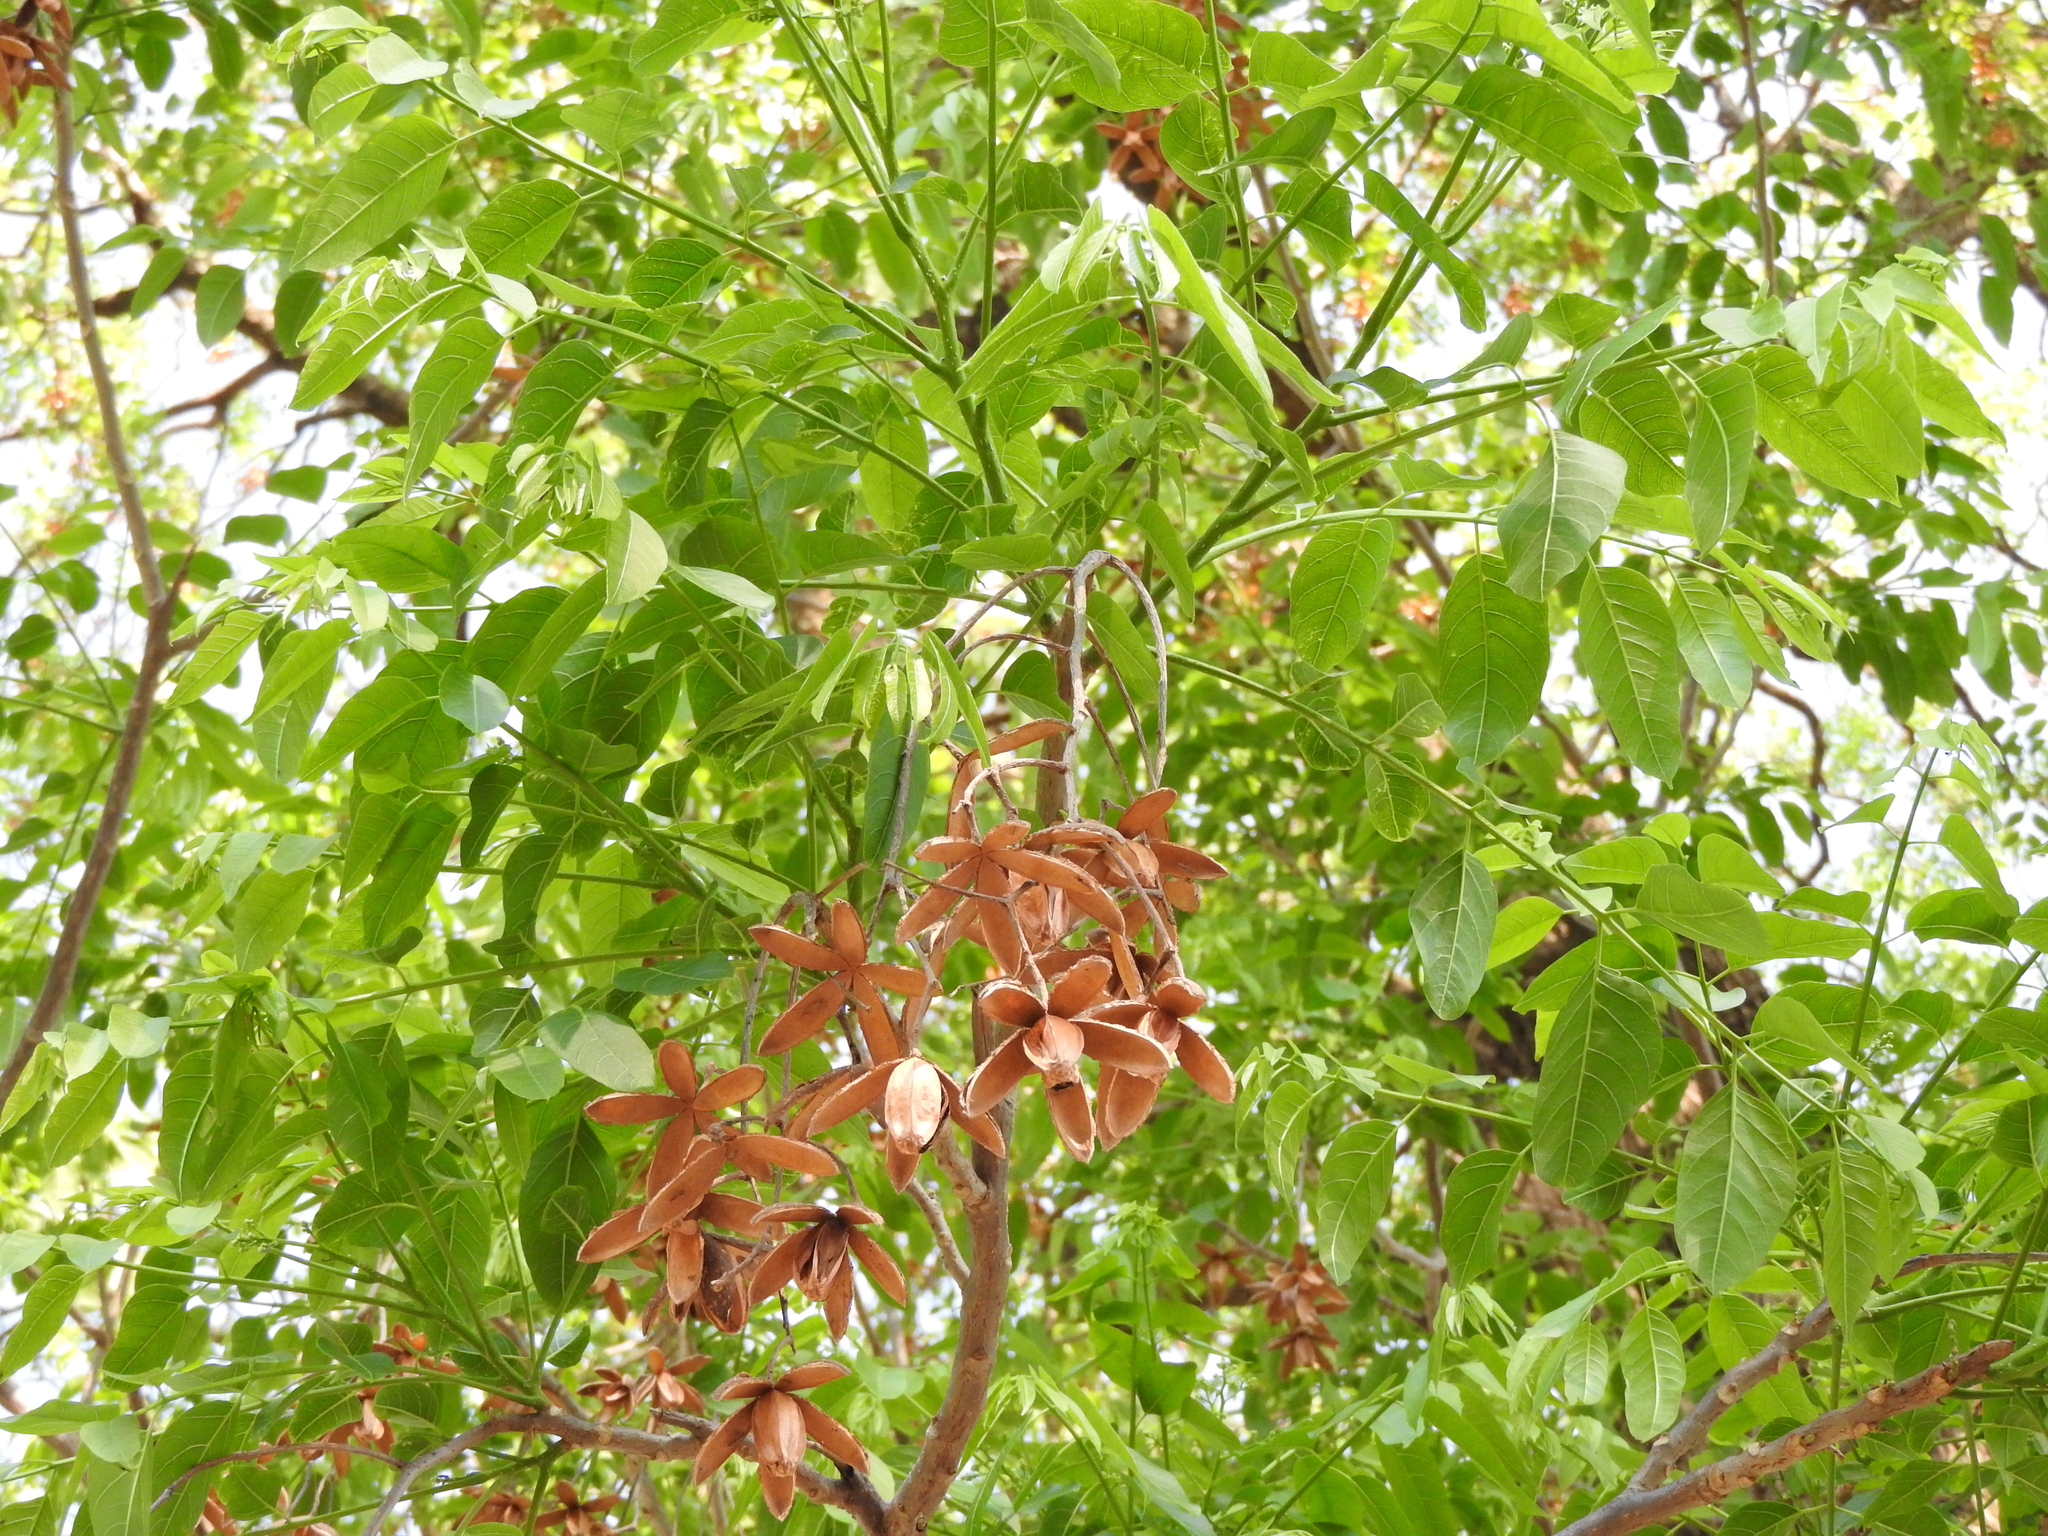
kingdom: Plantae
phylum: Tracheophyta
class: Magnoliopsida
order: Sapindales
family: Meliaceae
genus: Cedrela
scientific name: Cedrela odorata
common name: Red cedar
